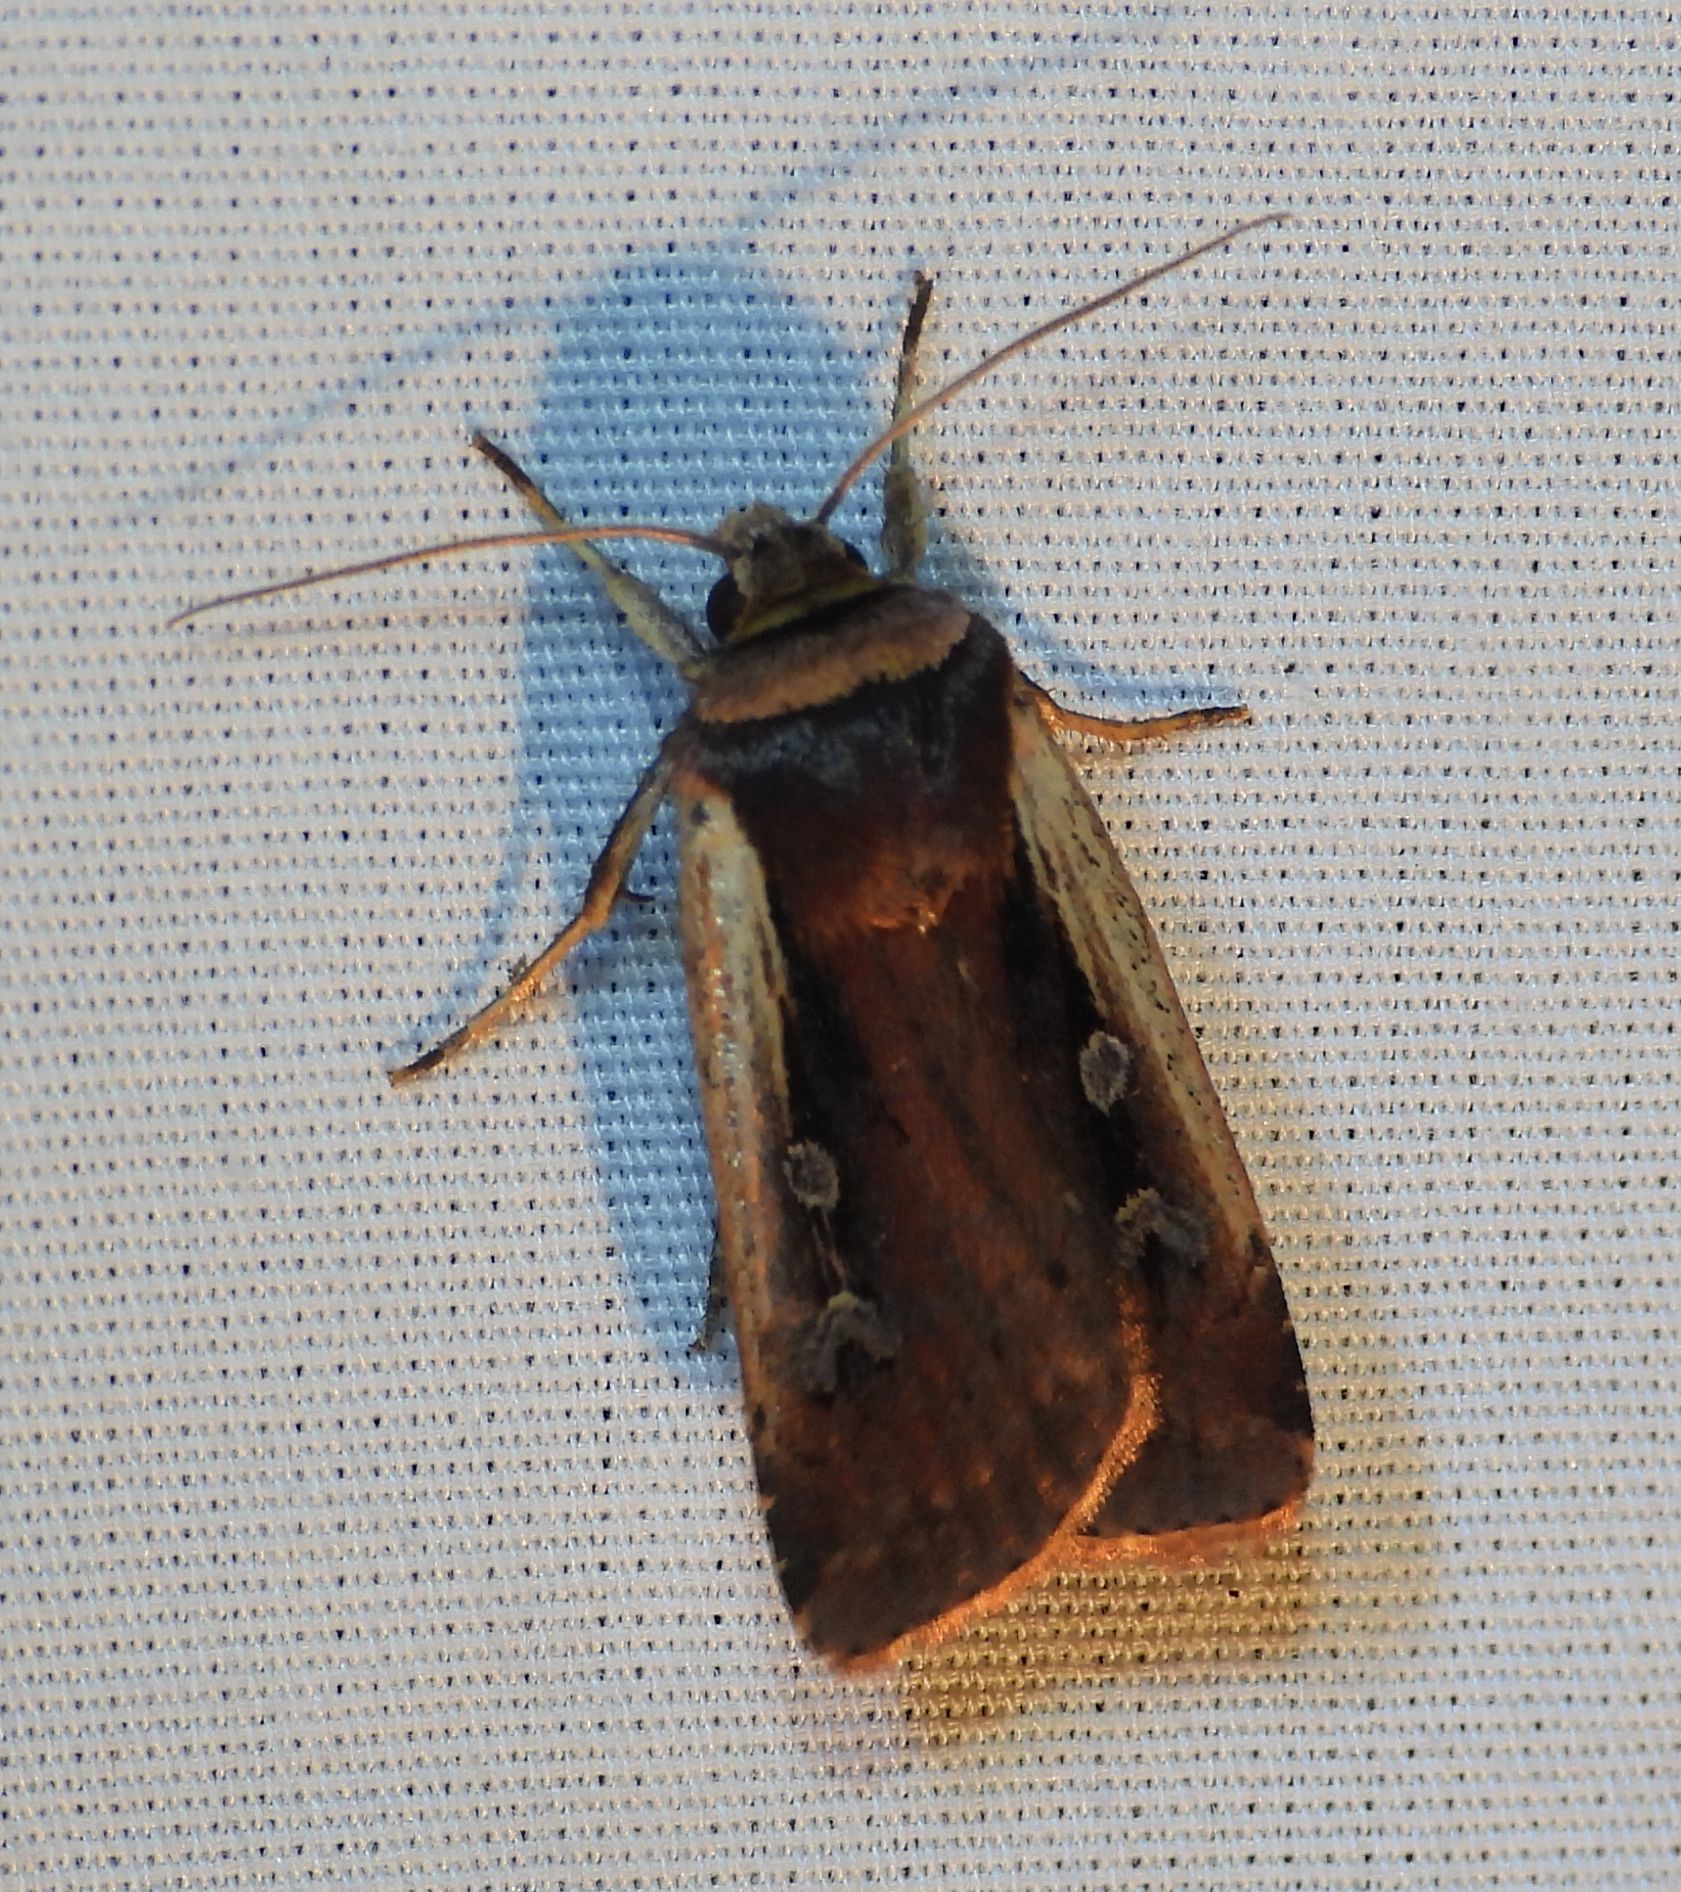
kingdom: Animalia
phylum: Arthropoda
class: Insecta
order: Lepidoptera
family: Noctuidae
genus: Ochropleura
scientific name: Ochropleura implecta
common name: Flame-shouldered dart
